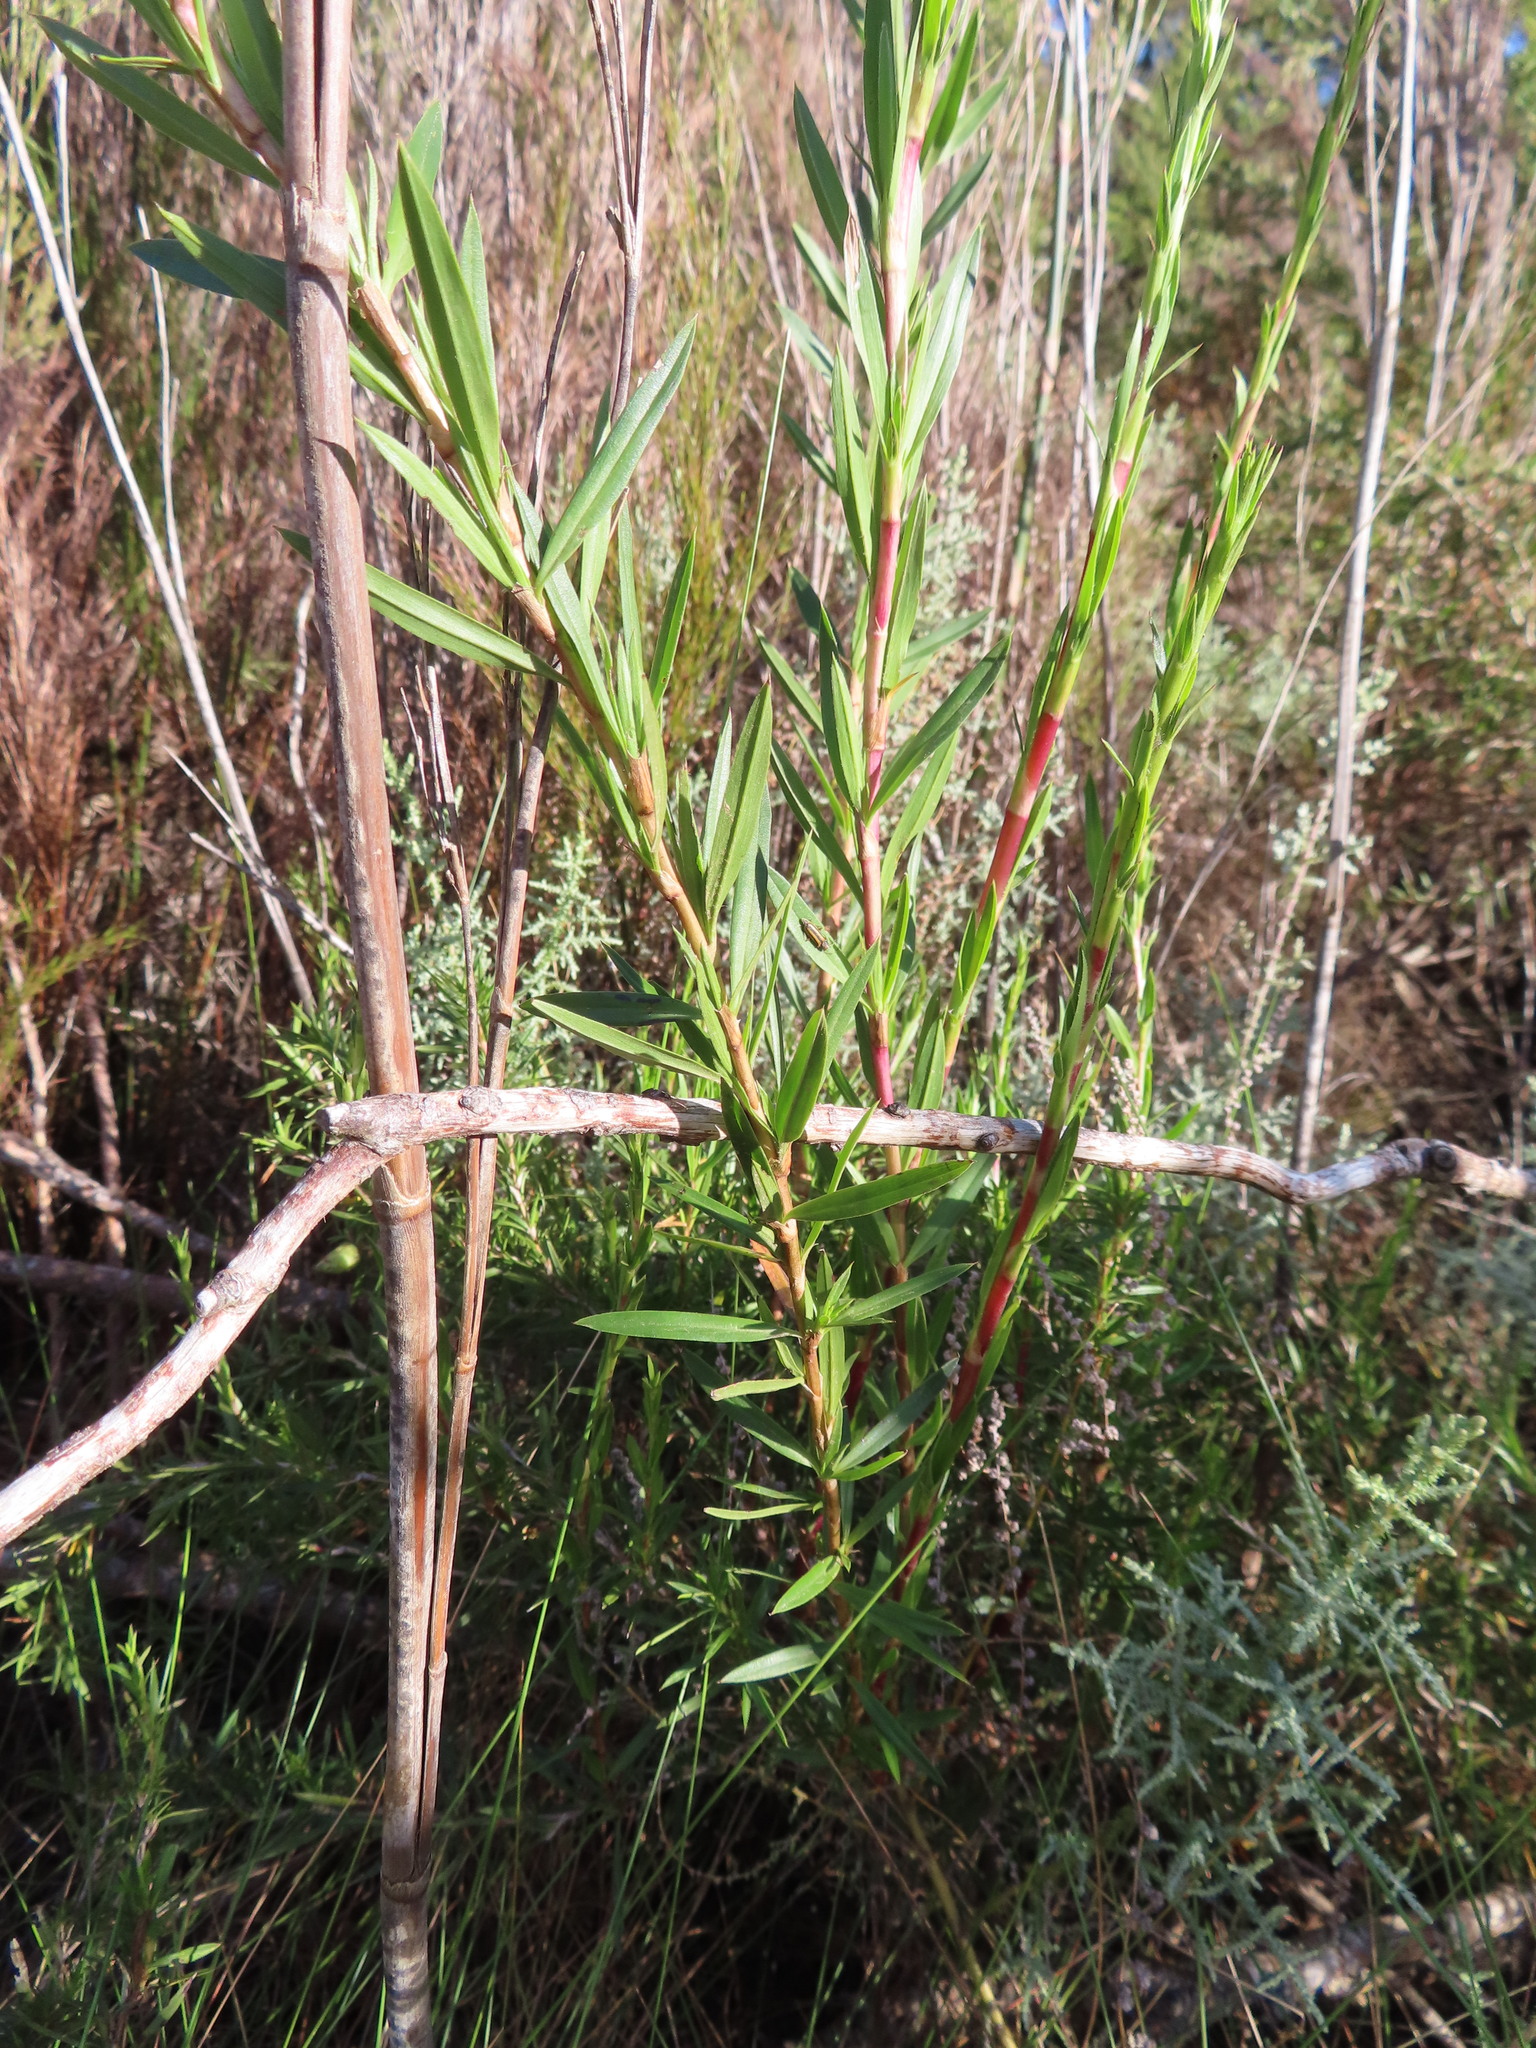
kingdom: Plantae
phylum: Tracheophyta
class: Magnoliopsida
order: Rosales
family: Rosaceae
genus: Cliffortia
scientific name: Cliffortia strobilifera
